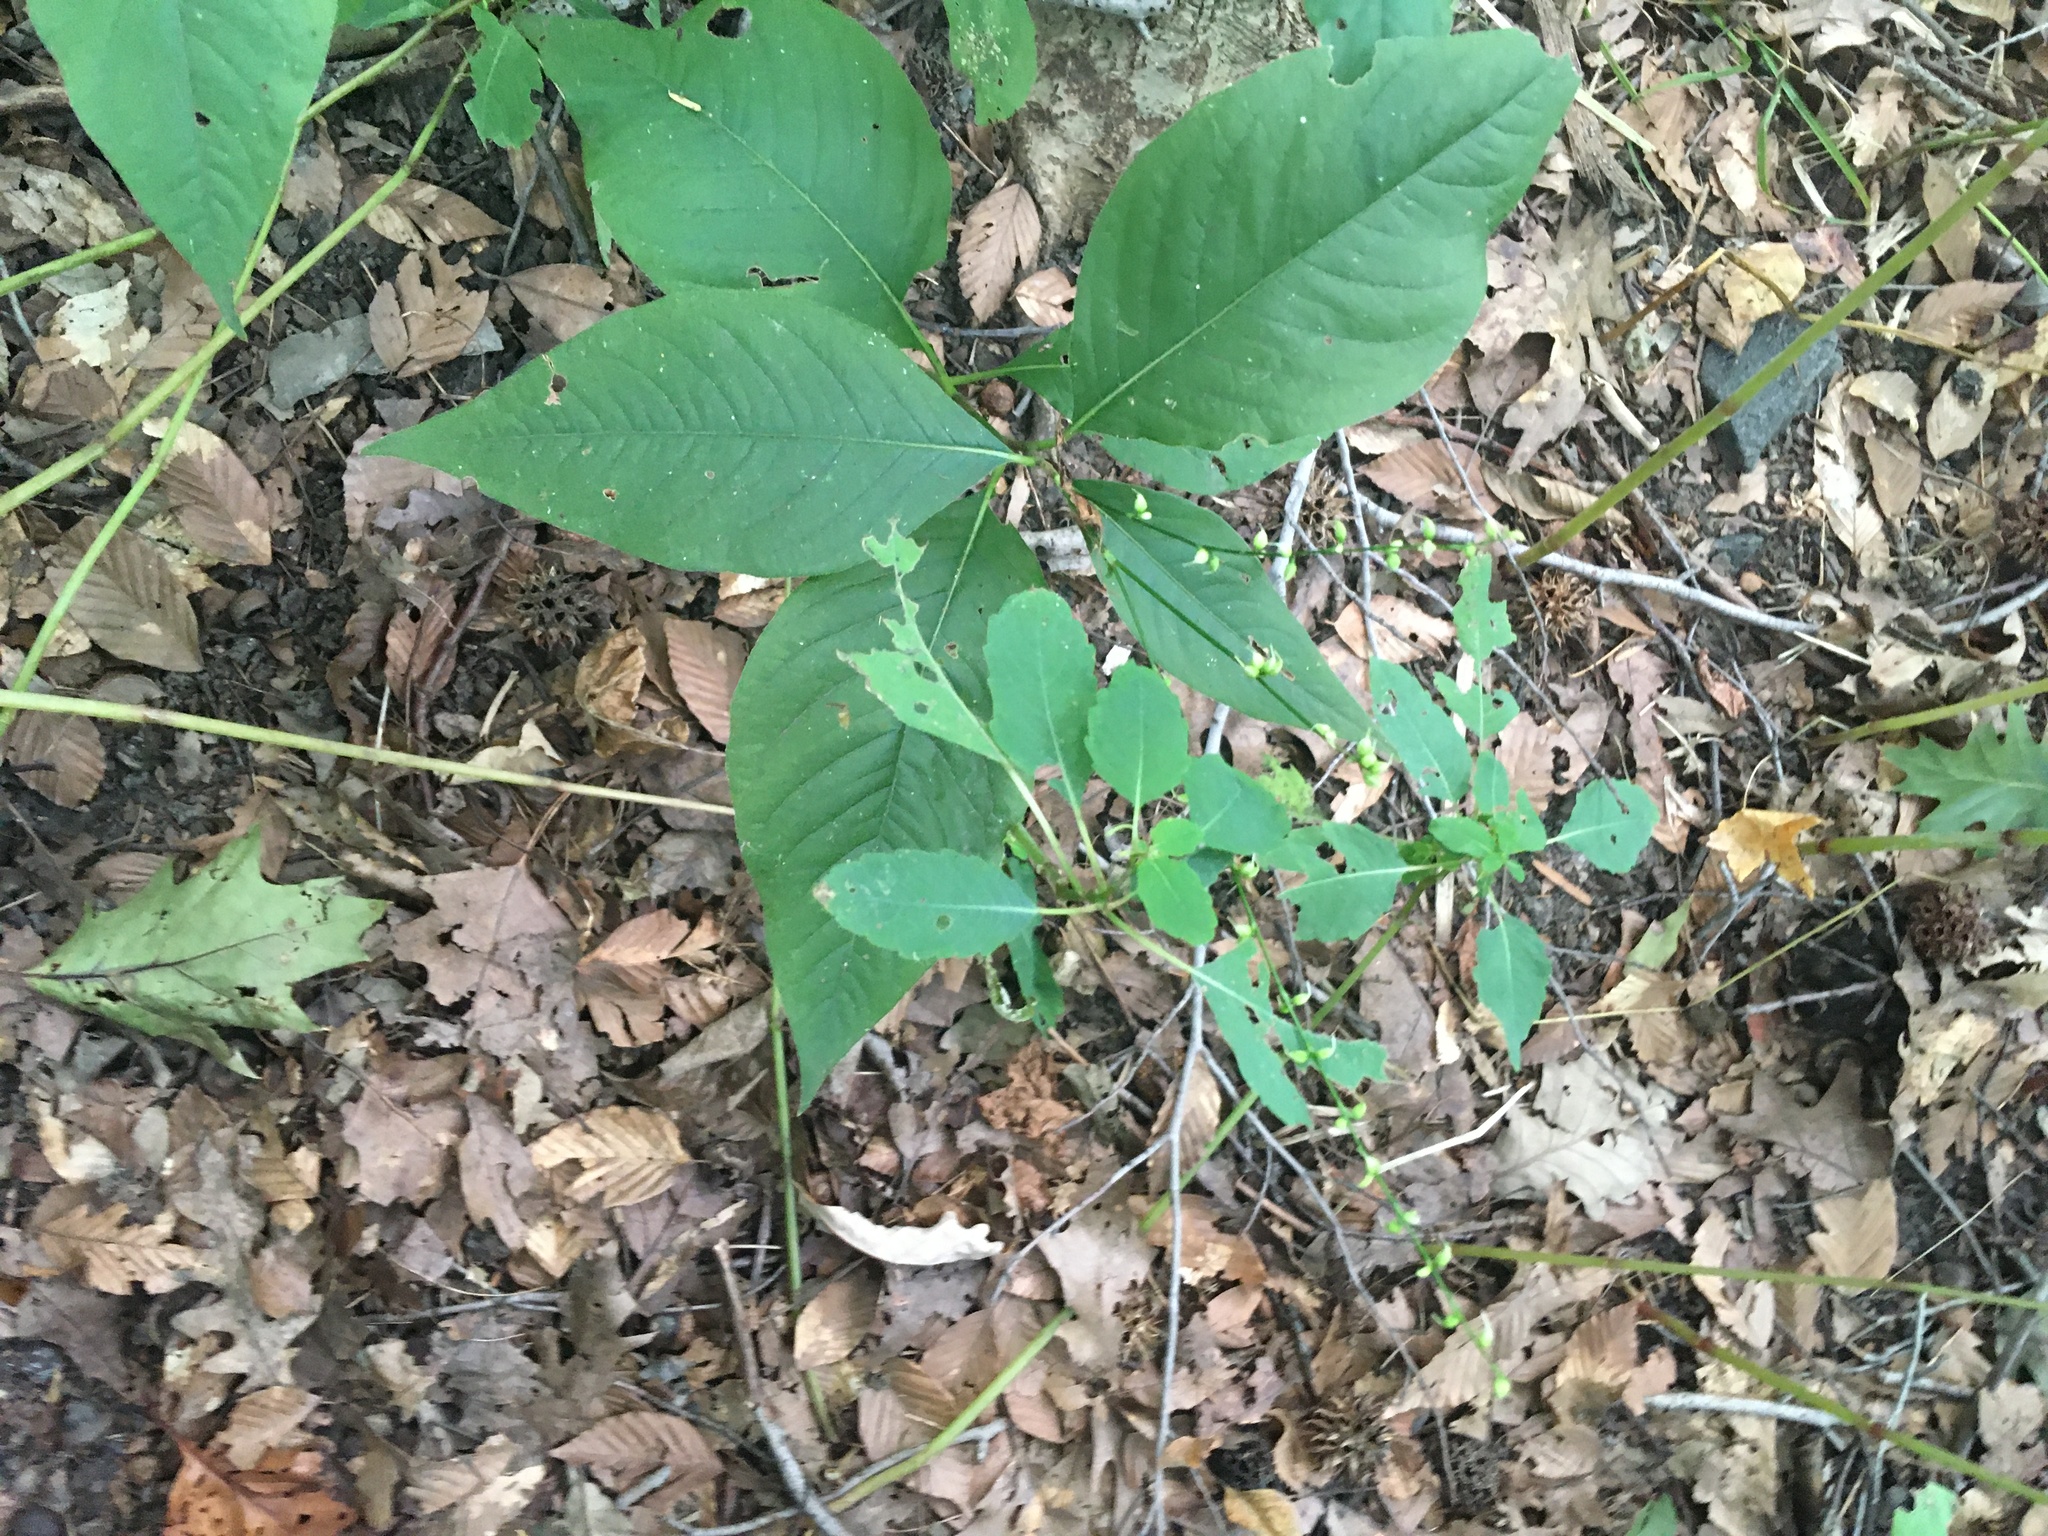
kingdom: Plantae
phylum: Tracheophyta
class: Magnoliopsida
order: Caryophyllales
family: Polygonaceae
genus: Persicaria
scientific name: Persicaria virginiana
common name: Jumpseed
